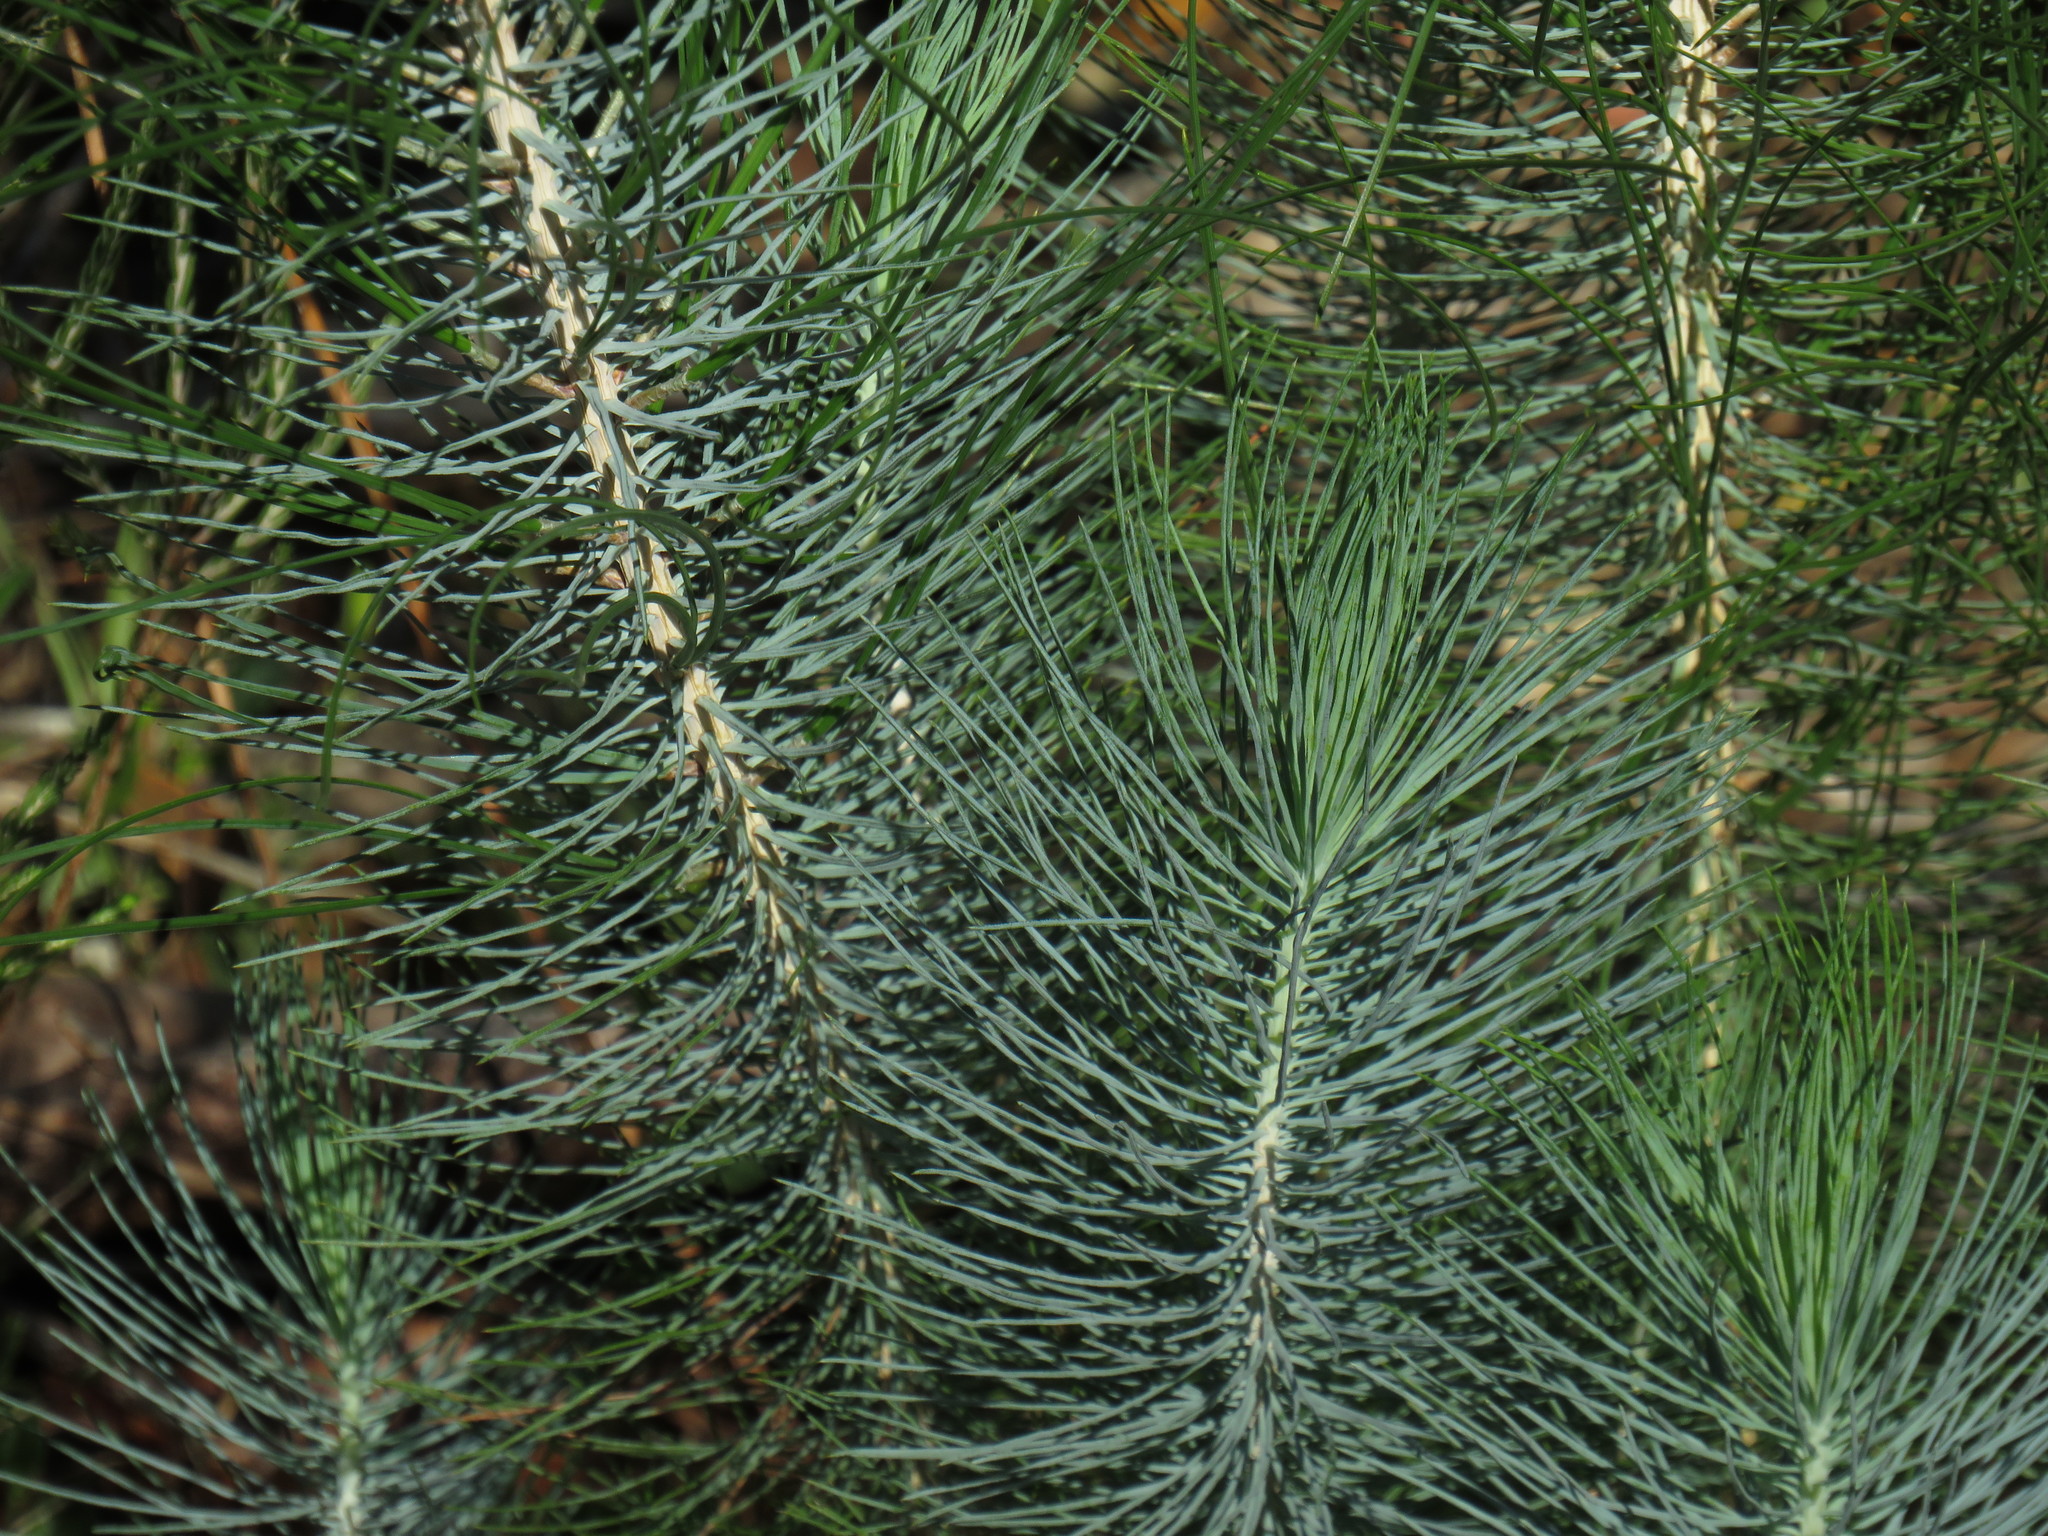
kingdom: Plantae
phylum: Tracheophyta
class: Pinopsida
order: Pinales
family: Pinaceae
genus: Pinus
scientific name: Pinus canariensis
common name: Canary islands pine
